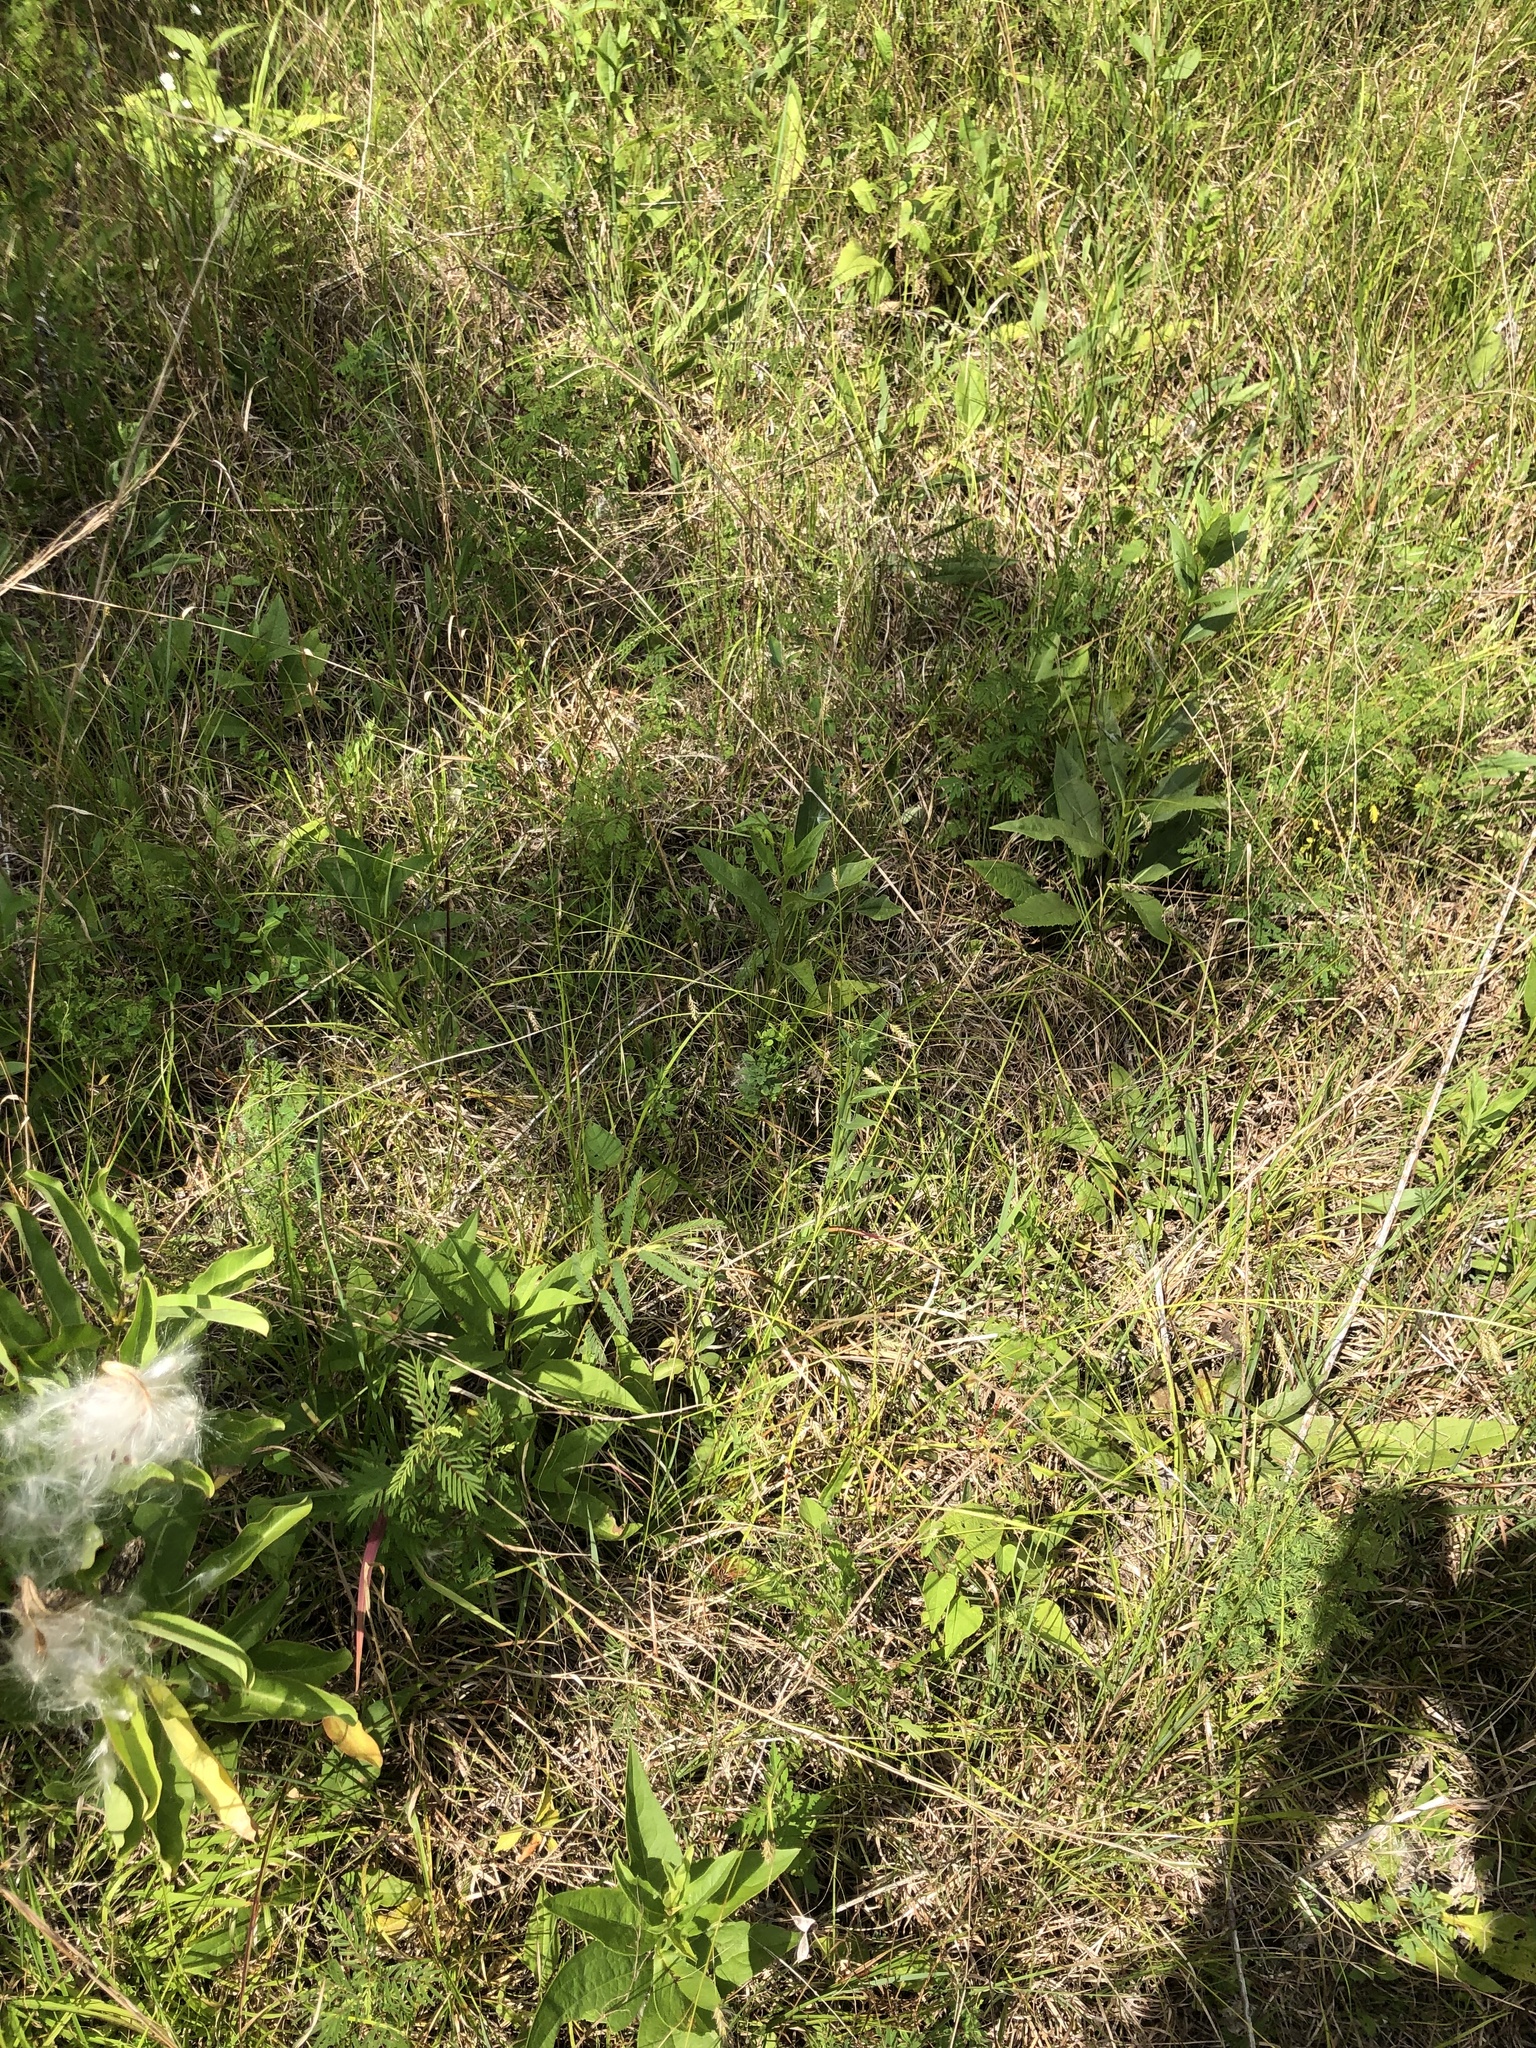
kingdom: Plantae
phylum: Tracheophyta
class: Magnoliopsida
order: Asterales
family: Asteraceae
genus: Silphium
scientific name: Silphium confertifolium
